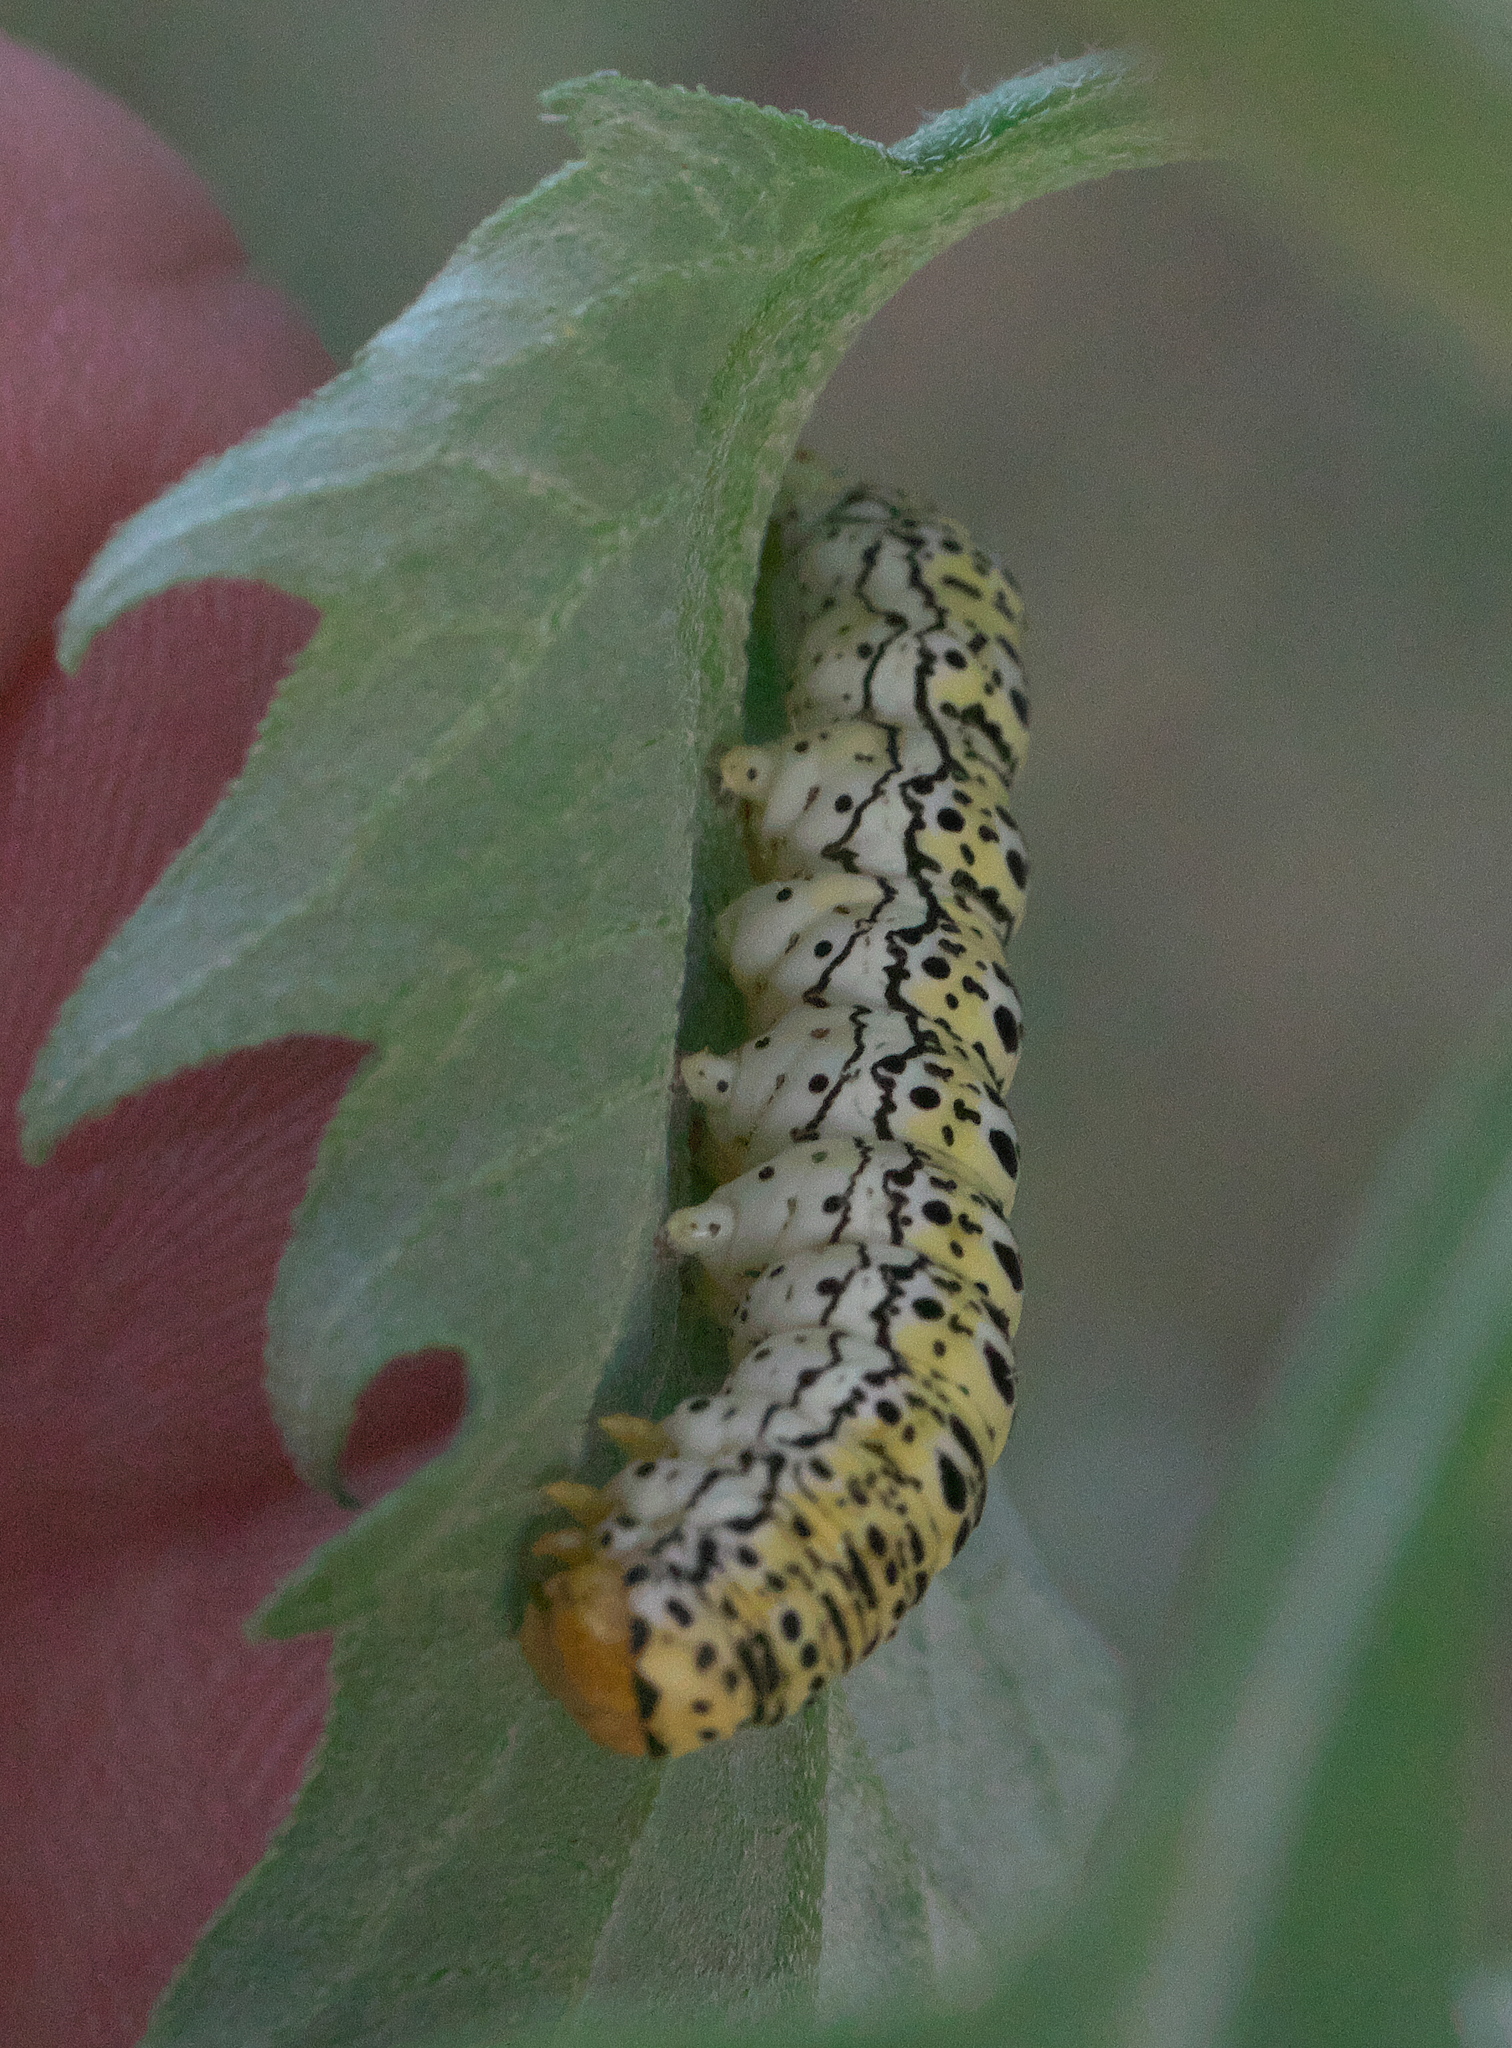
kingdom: Animalia
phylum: Arthropoda
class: Insecta
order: Lepidoptera
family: Noctuidae
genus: Basilodes
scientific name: Basilodes chrysopis
